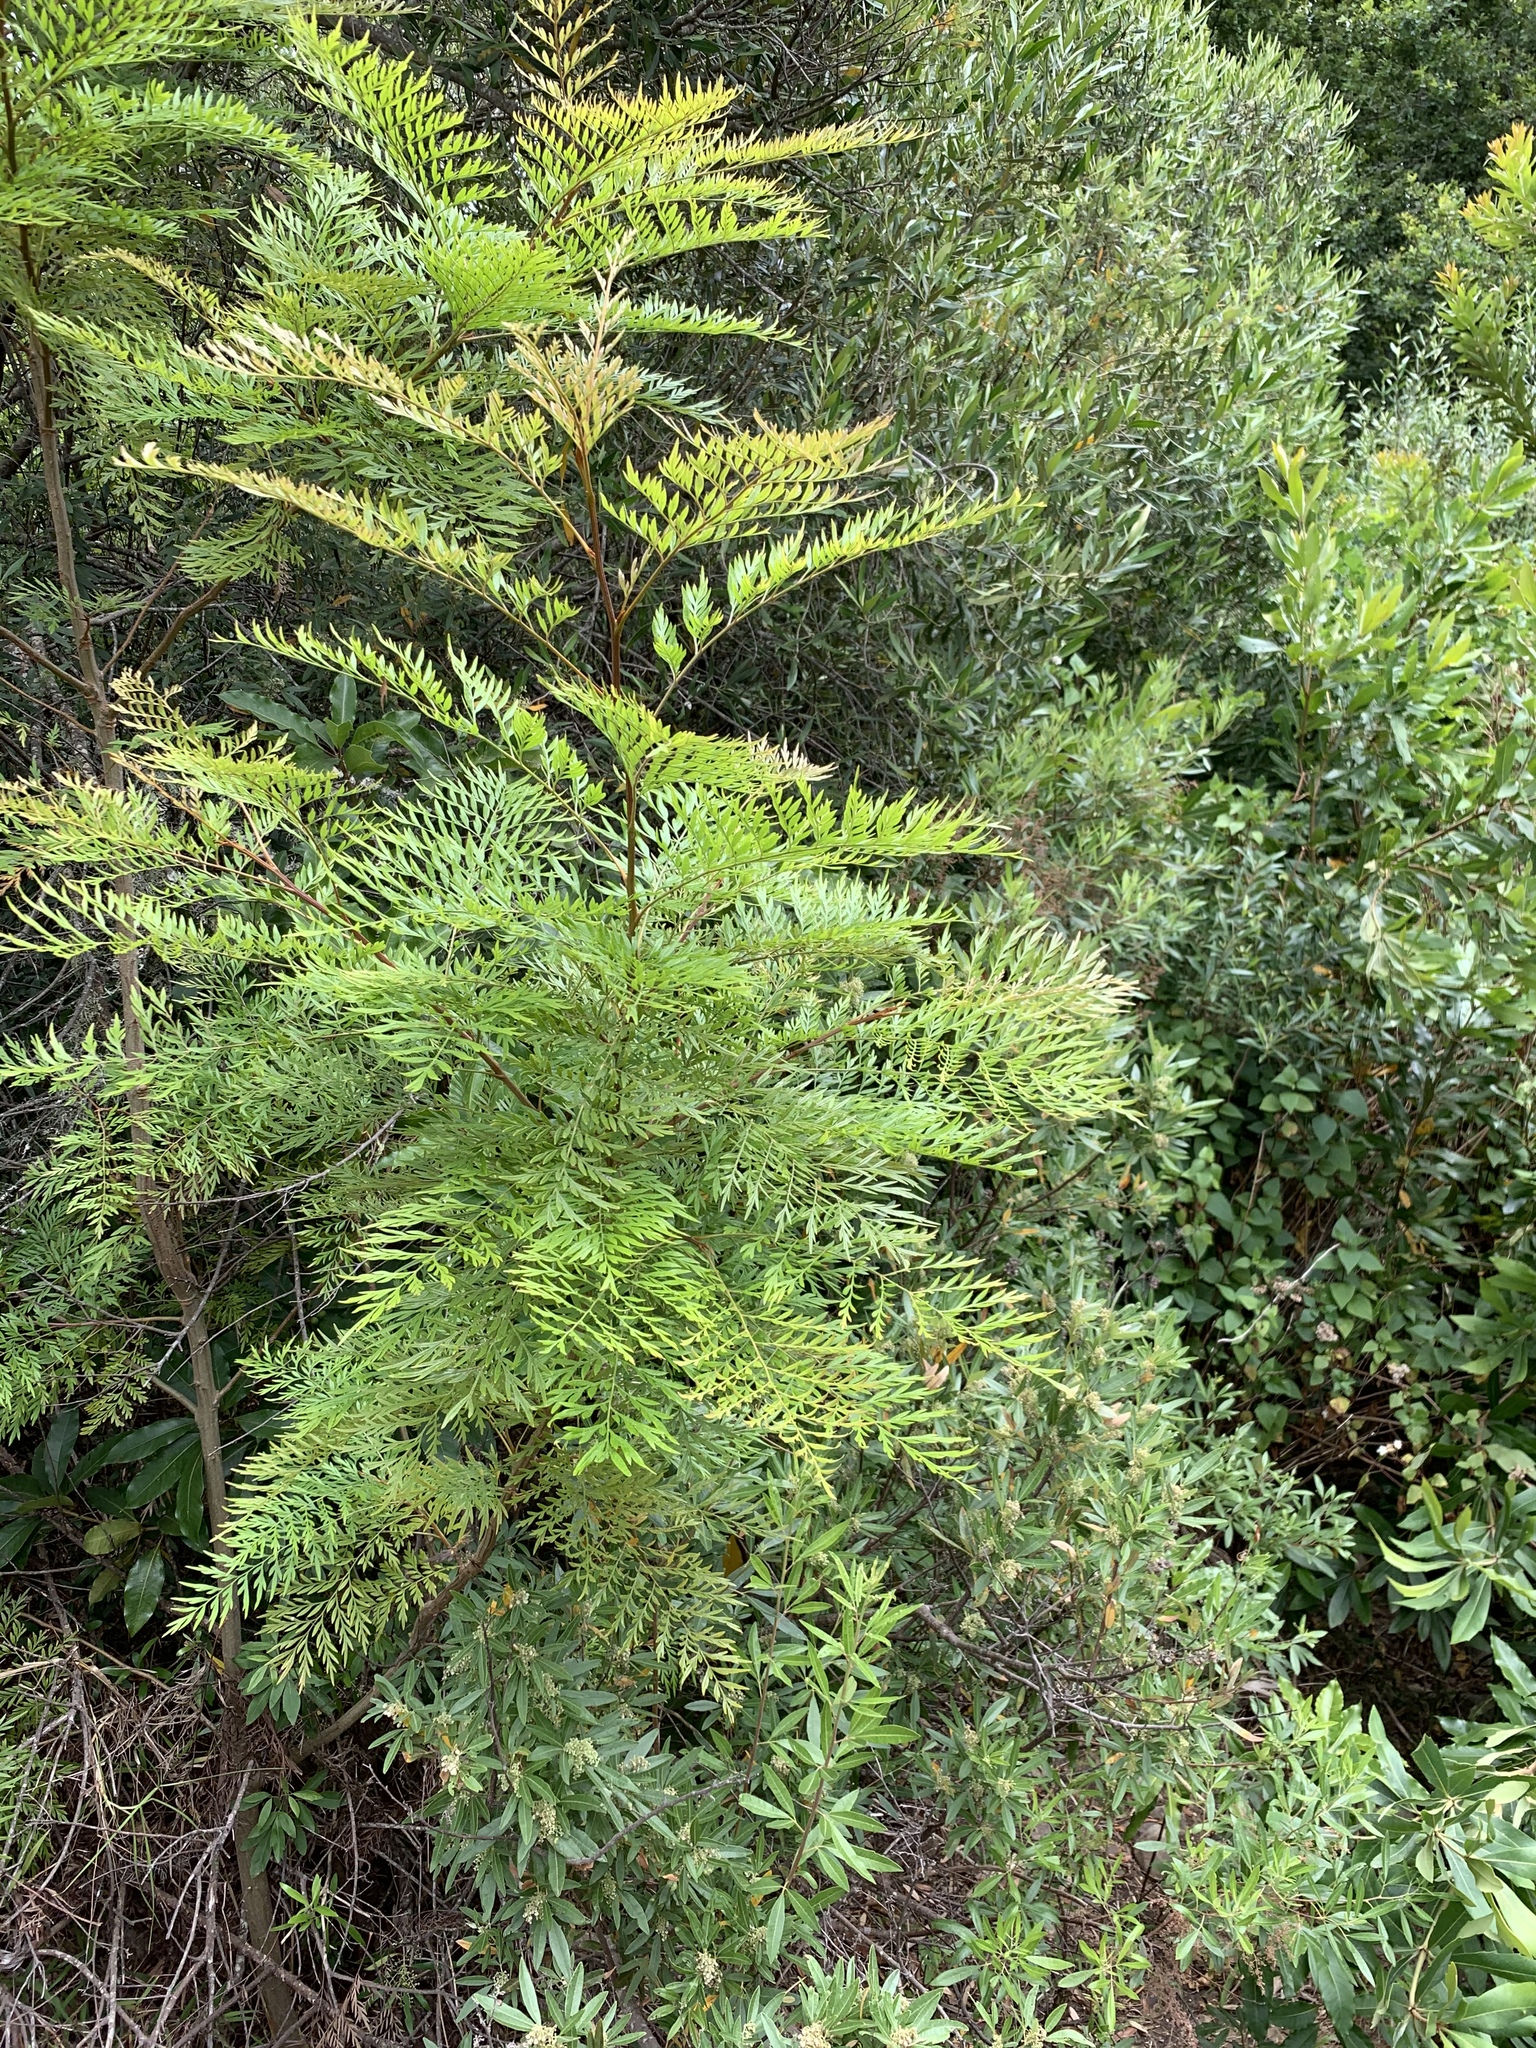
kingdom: Plantae
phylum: Tracheophyta
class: Magnoliopsida
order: Proteales
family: Proteaceae
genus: Grevillea
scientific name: Grevillea robusta
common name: Silkoak
